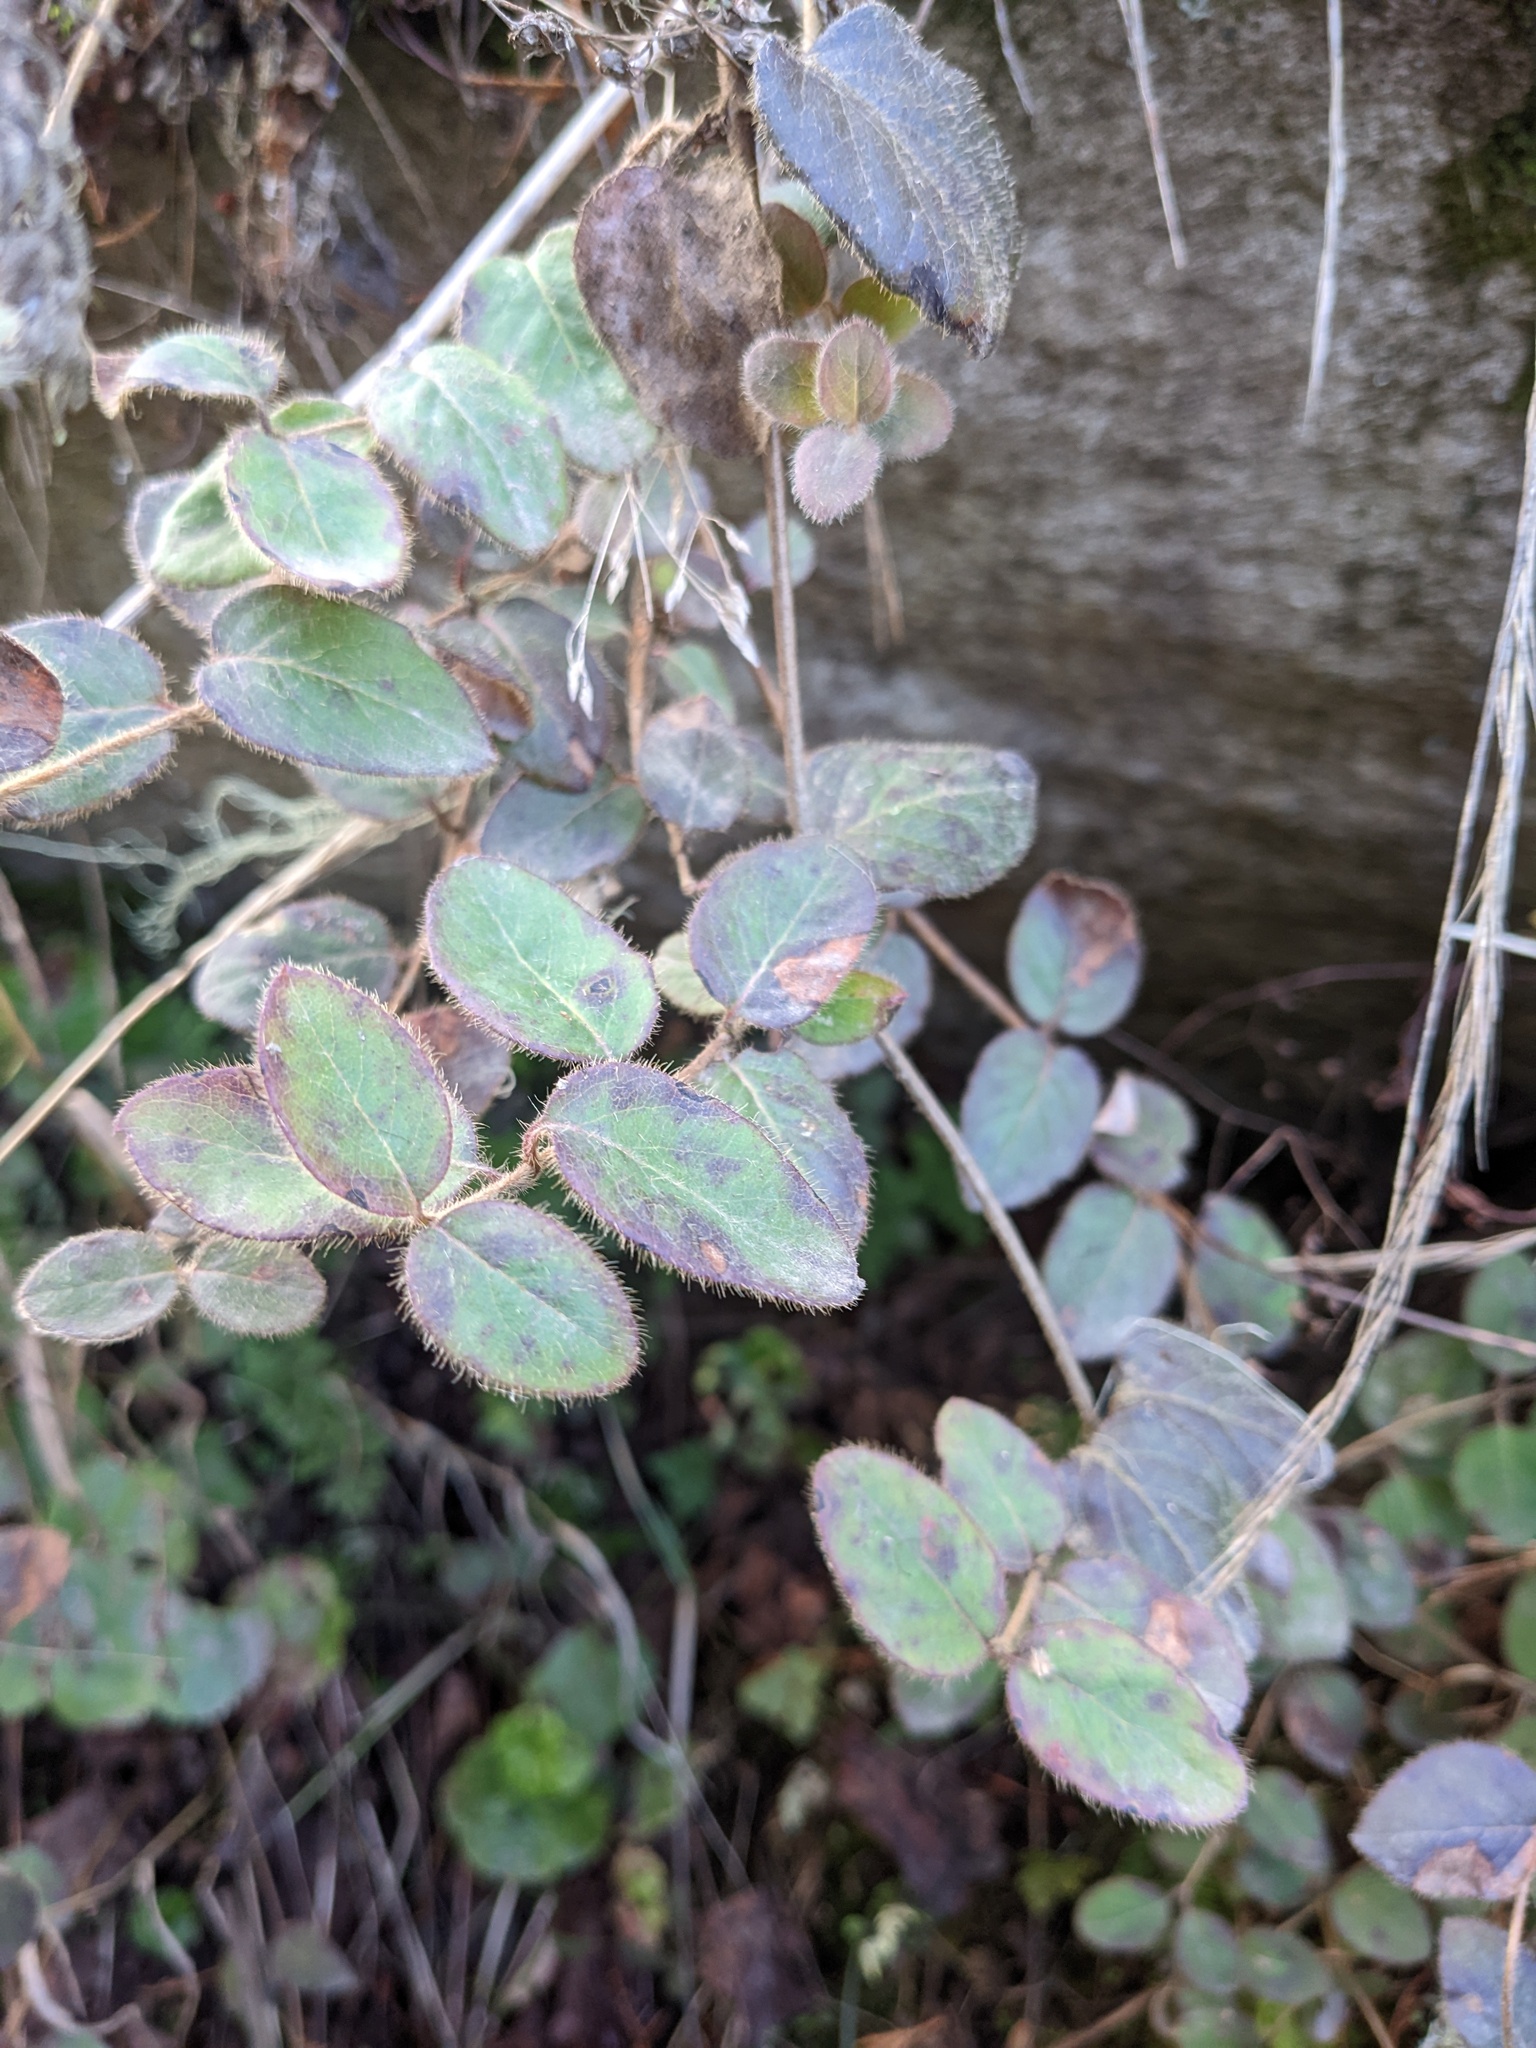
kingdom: Plantae
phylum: Tracheophyta
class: Magnoliopsida
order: Dipsacales
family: Caprifoliaceae
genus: Lonicera
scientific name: Lonicera hispidula
